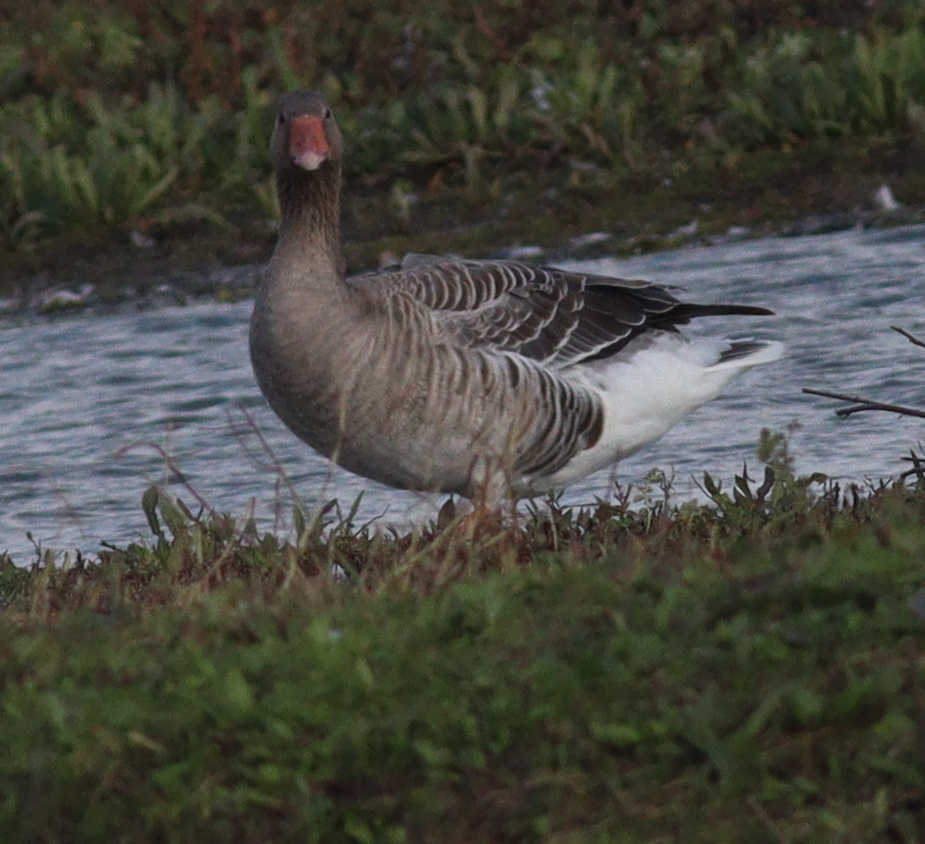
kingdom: Animalia
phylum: Chordata
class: Aves
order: Anseriformes
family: Anatidae
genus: Anser
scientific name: Anser anser
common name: Greylag goose
